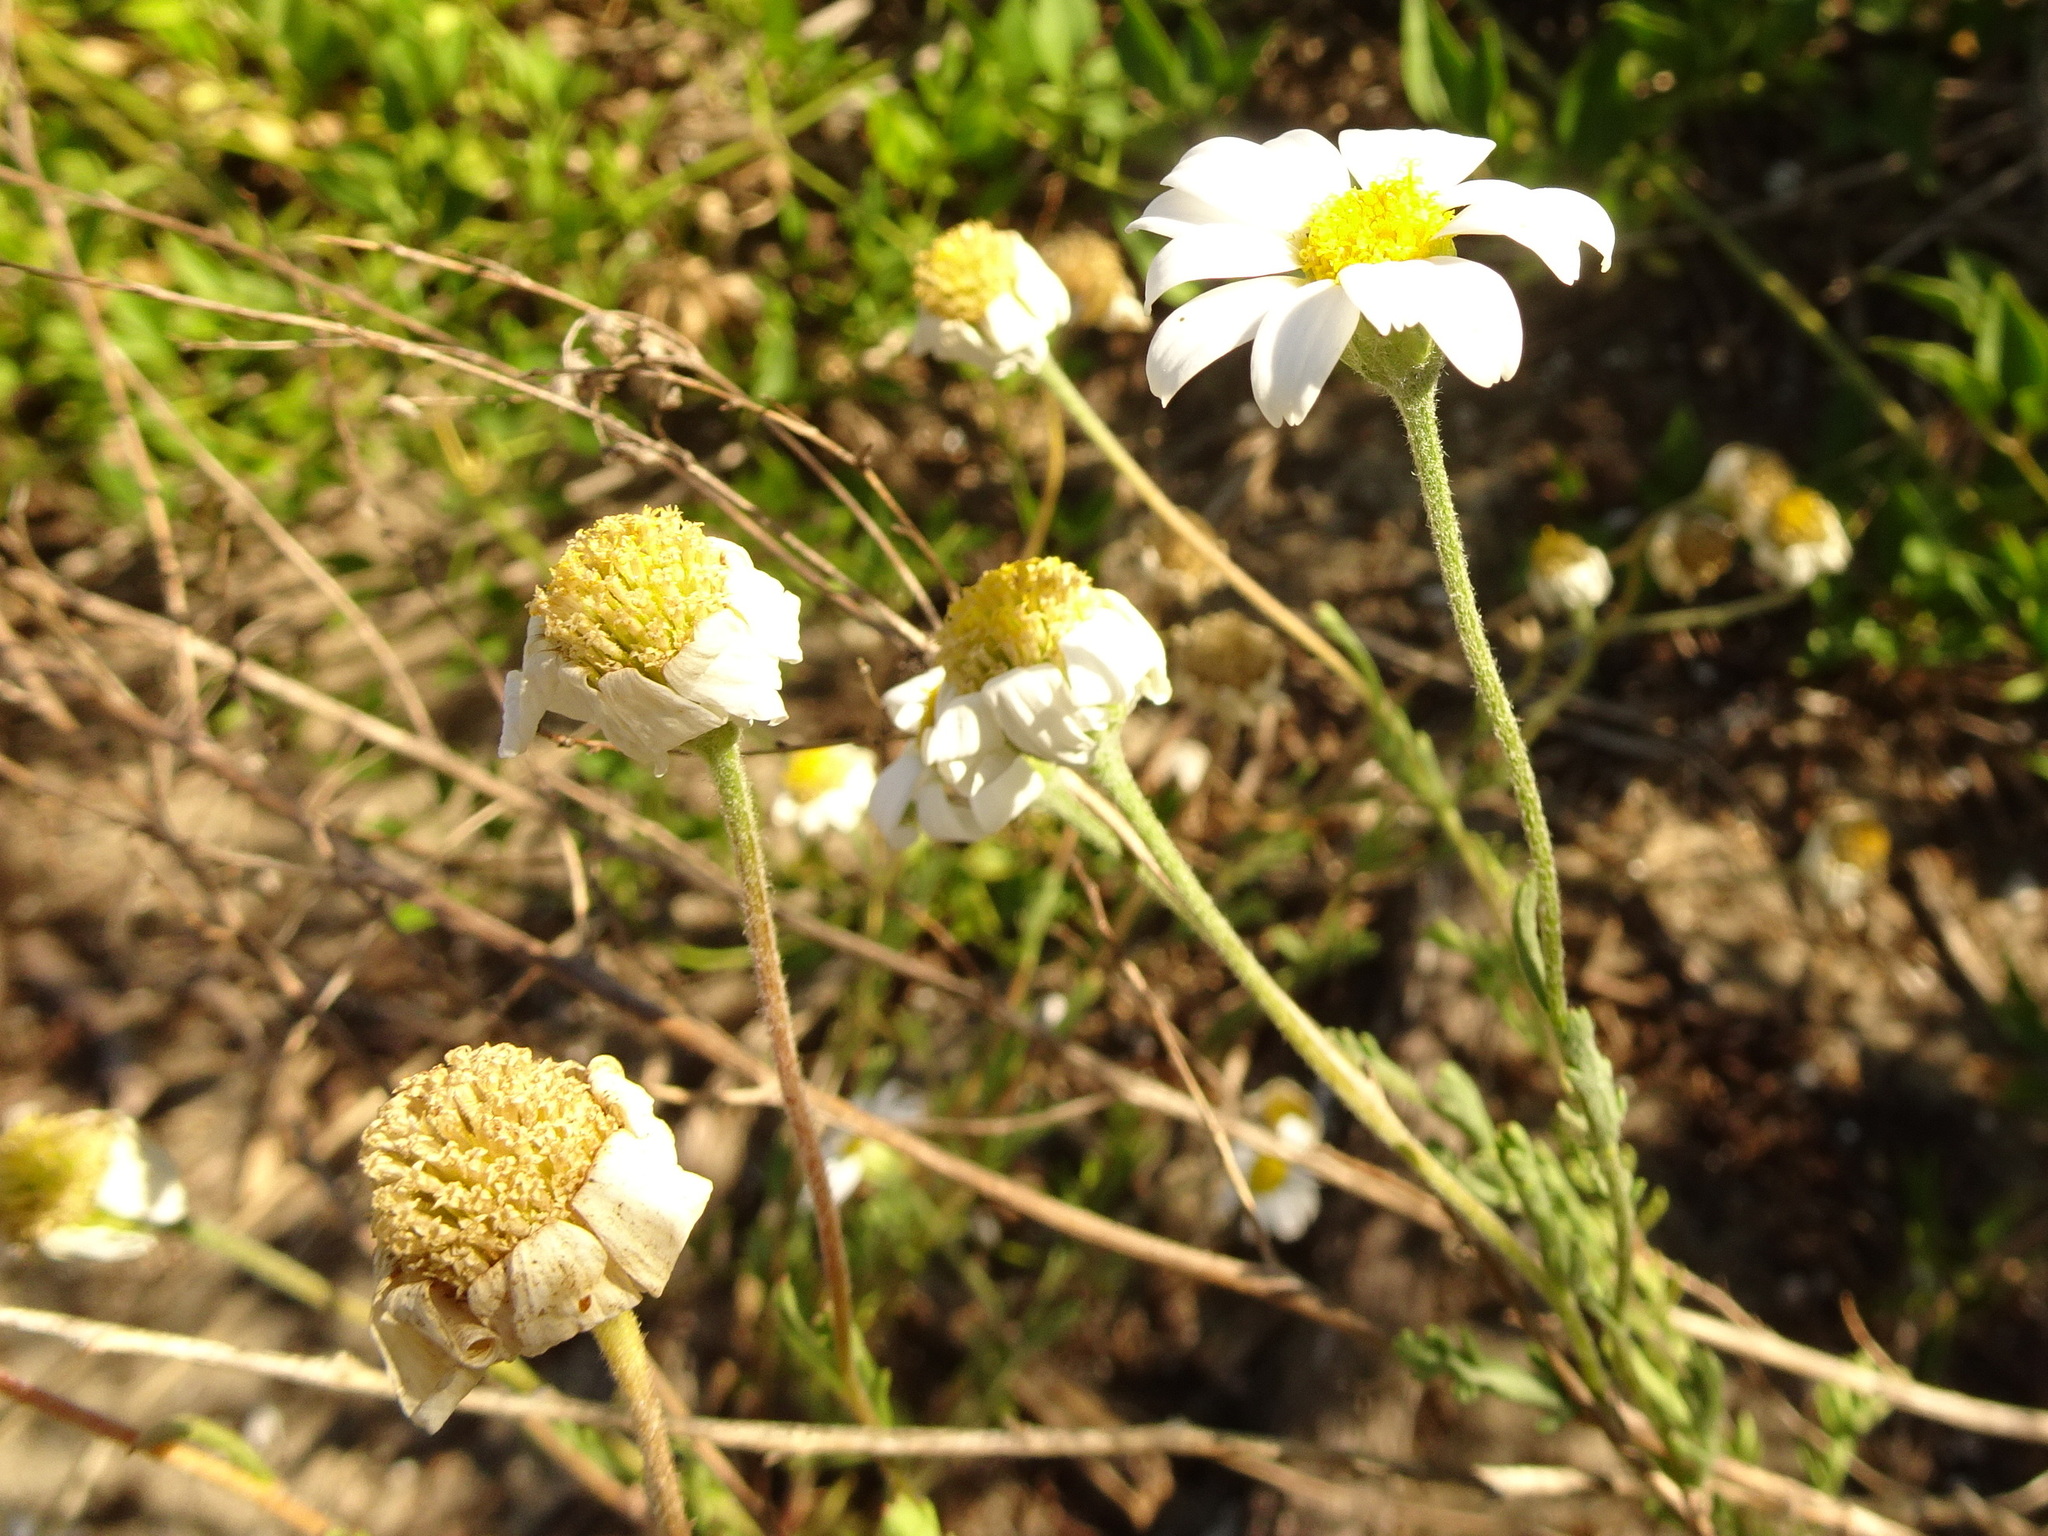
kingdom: Plantae
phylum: Tracheophyta
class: Magnoliopsida
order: Asterales
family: Asteraceae
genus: Anthemis
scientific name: Anthemis maritima
